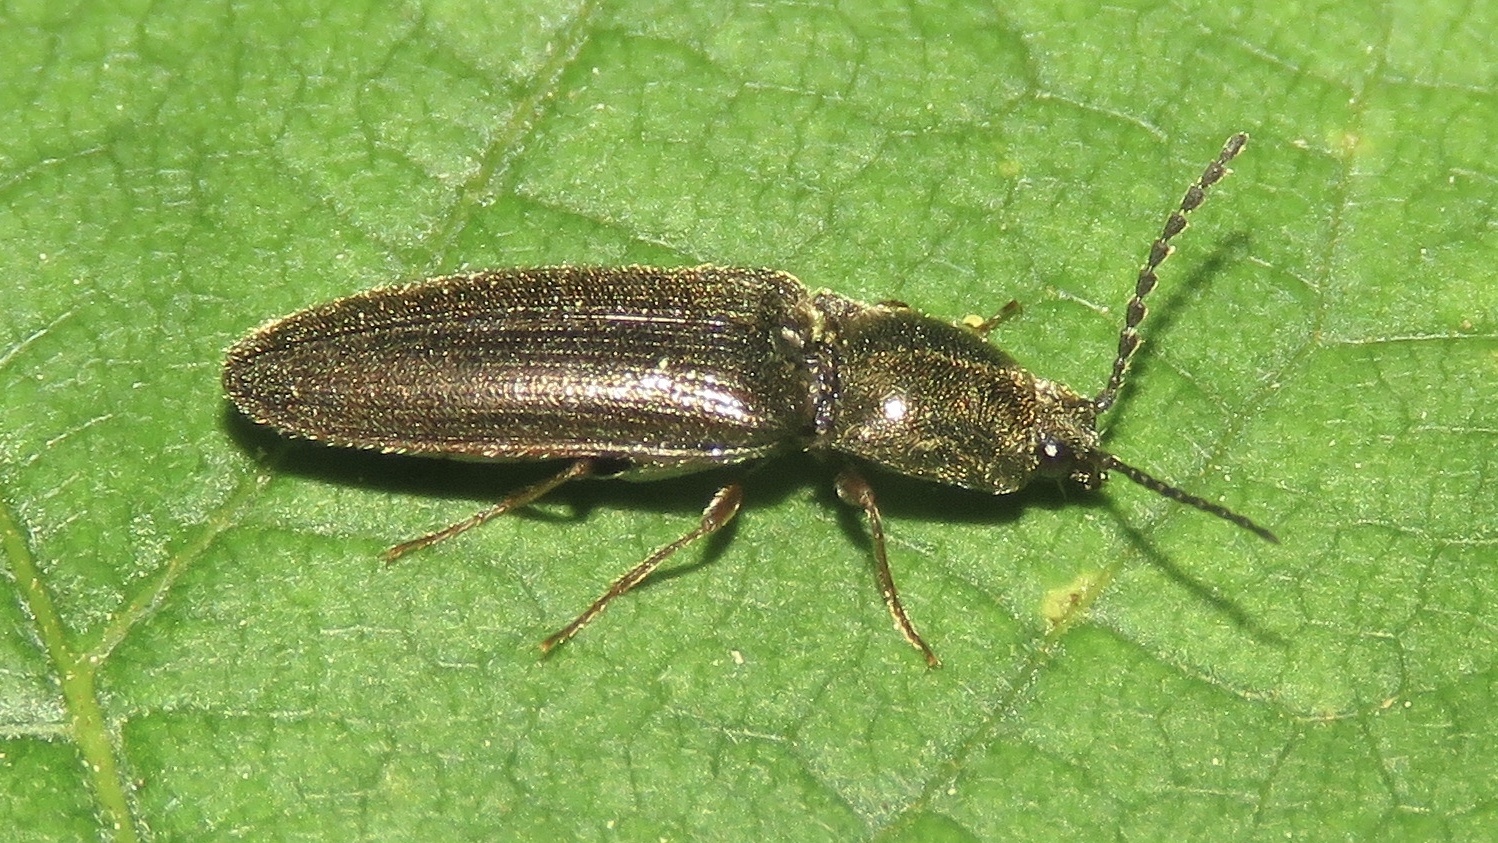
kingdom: Animalia
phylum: Arthropoda
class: Insecta
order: Coleoptera
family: Elateridae
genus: Gambrinus
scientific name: Gambrinus confusus
